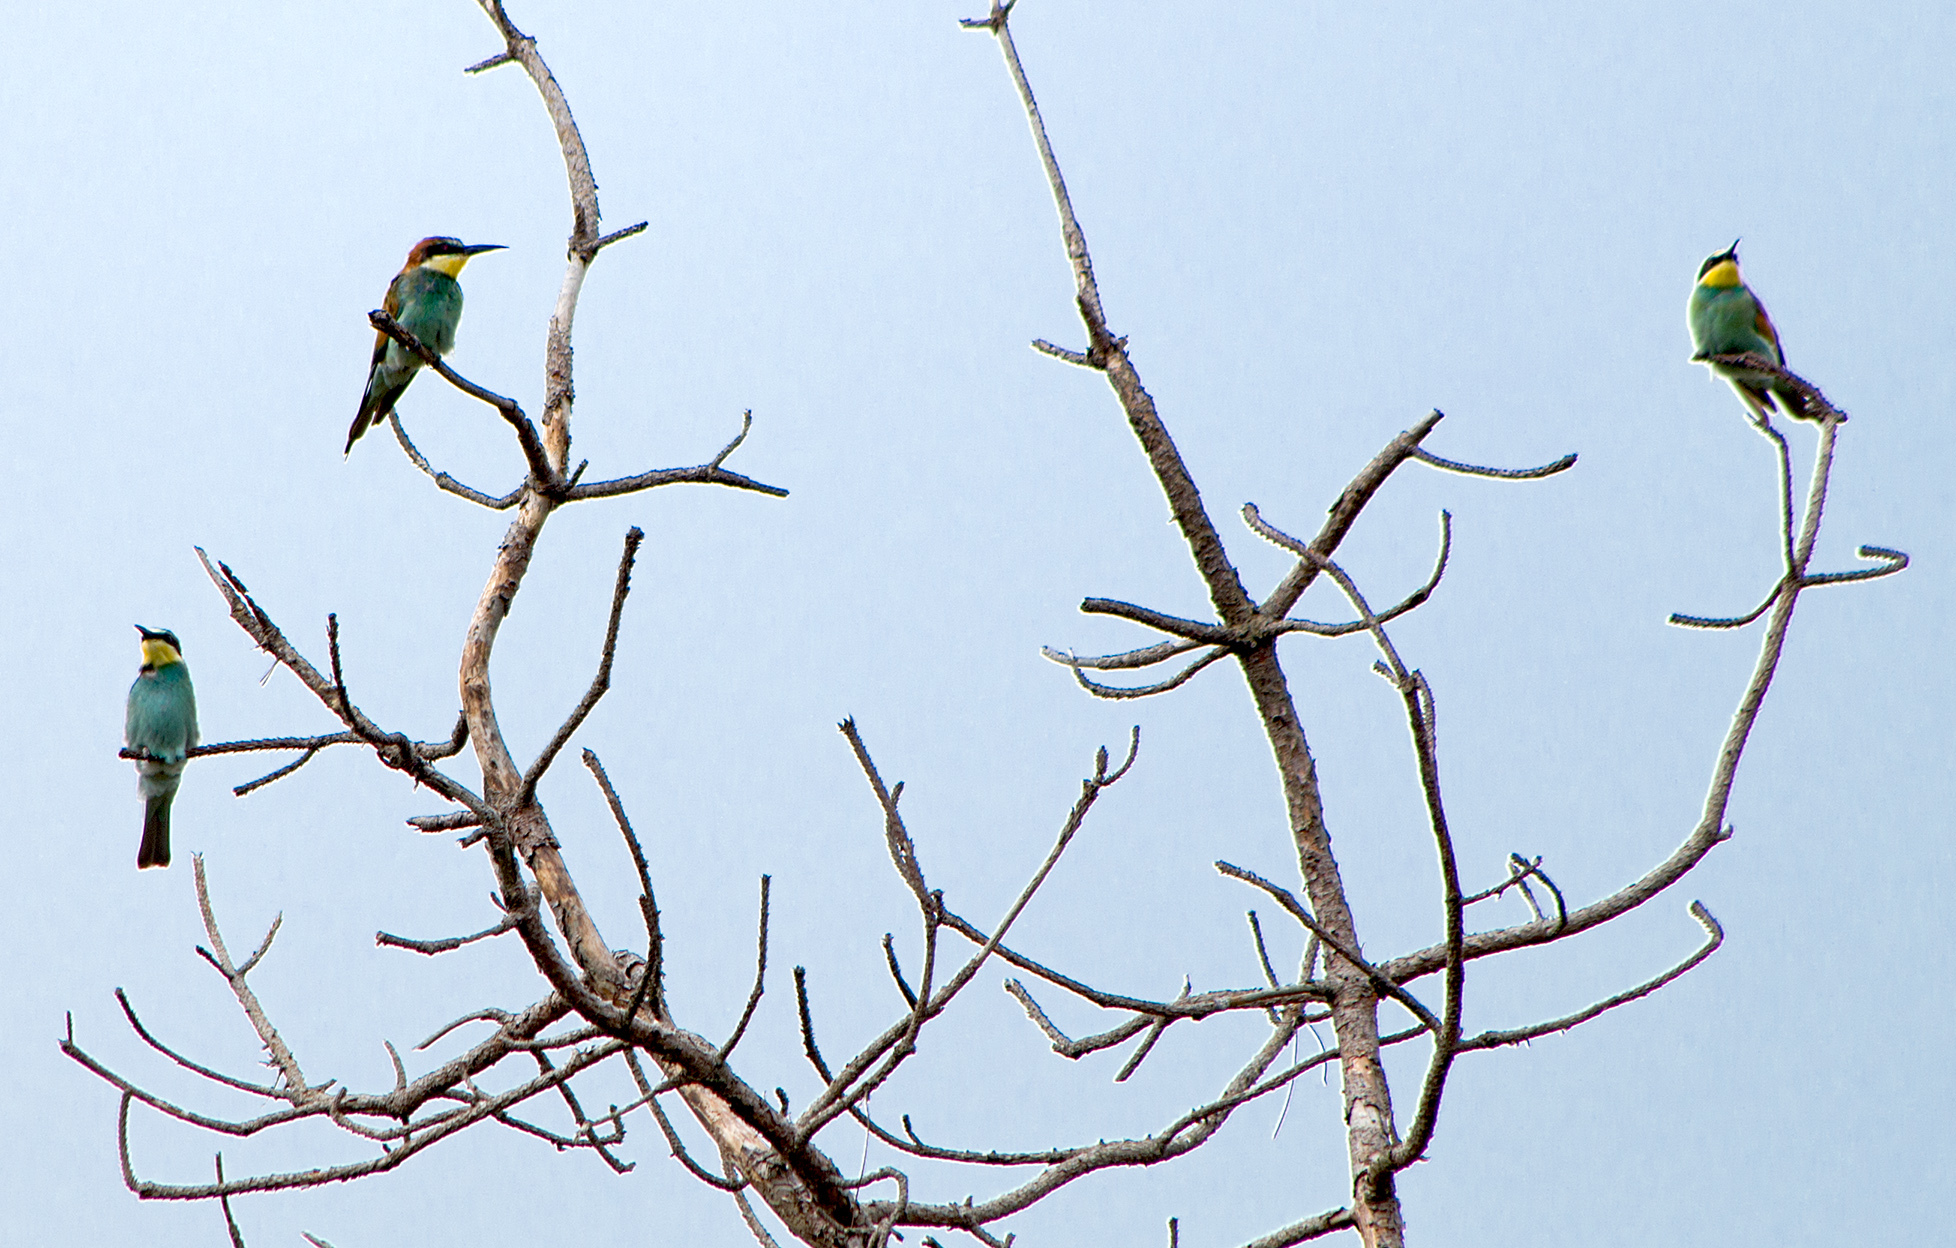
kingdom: Animalia
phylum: Chordata
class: Aves
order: Coraciiformes
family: Meropidae
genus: Merops
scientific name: Merops apiaster
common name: European bee-eater
